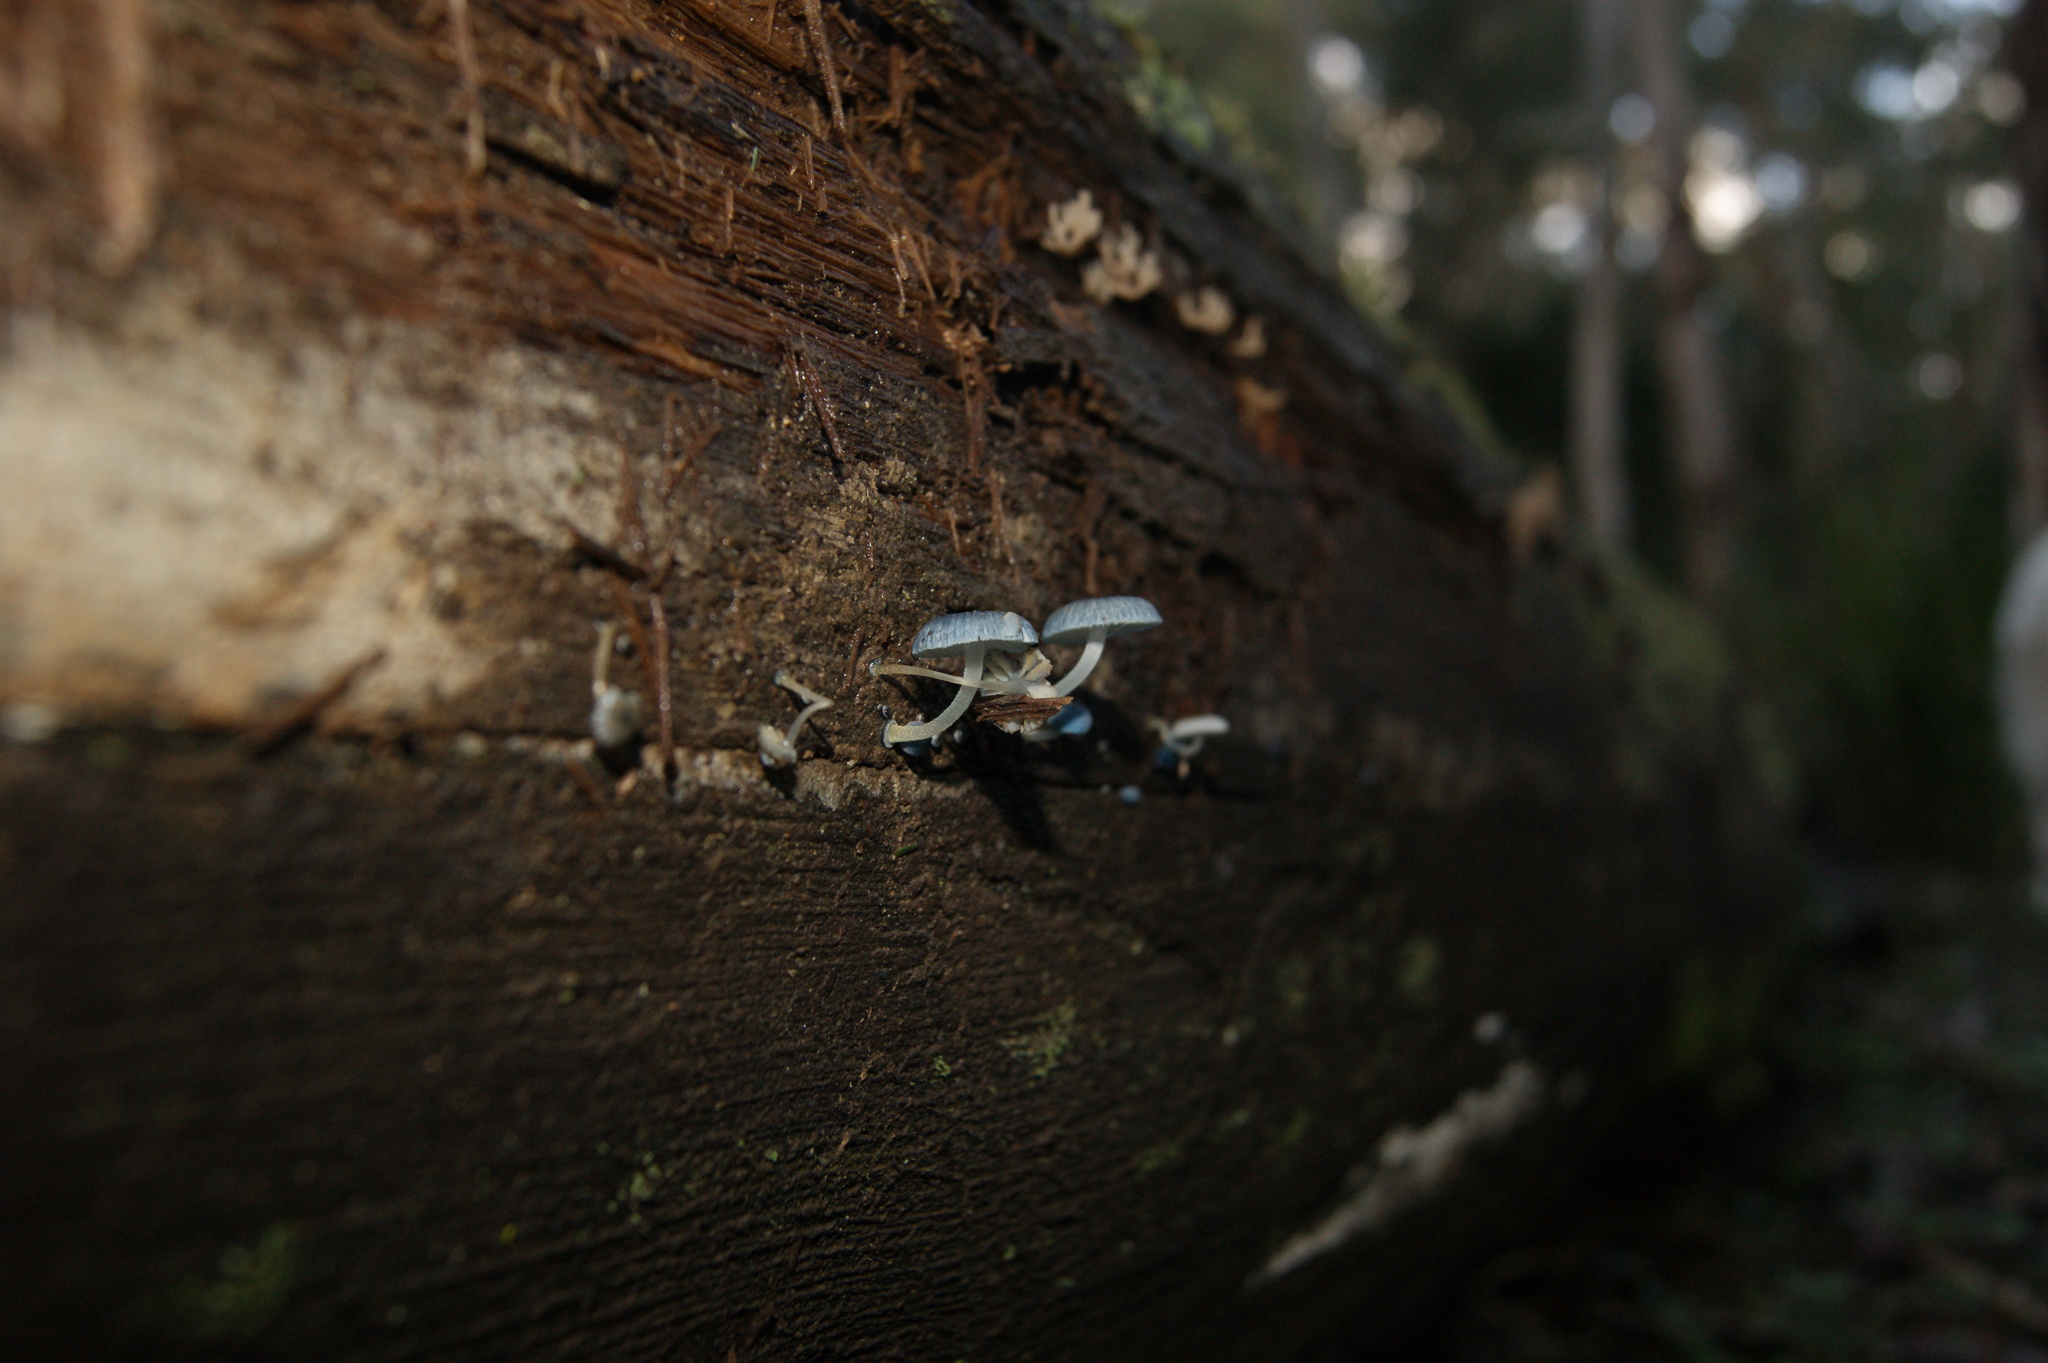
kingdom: Fungi
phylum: Basidiomycota
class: Agaricomycetes
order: Agaricales
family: Mycenaceae
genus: Mycena
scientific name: Mycena interrupta
